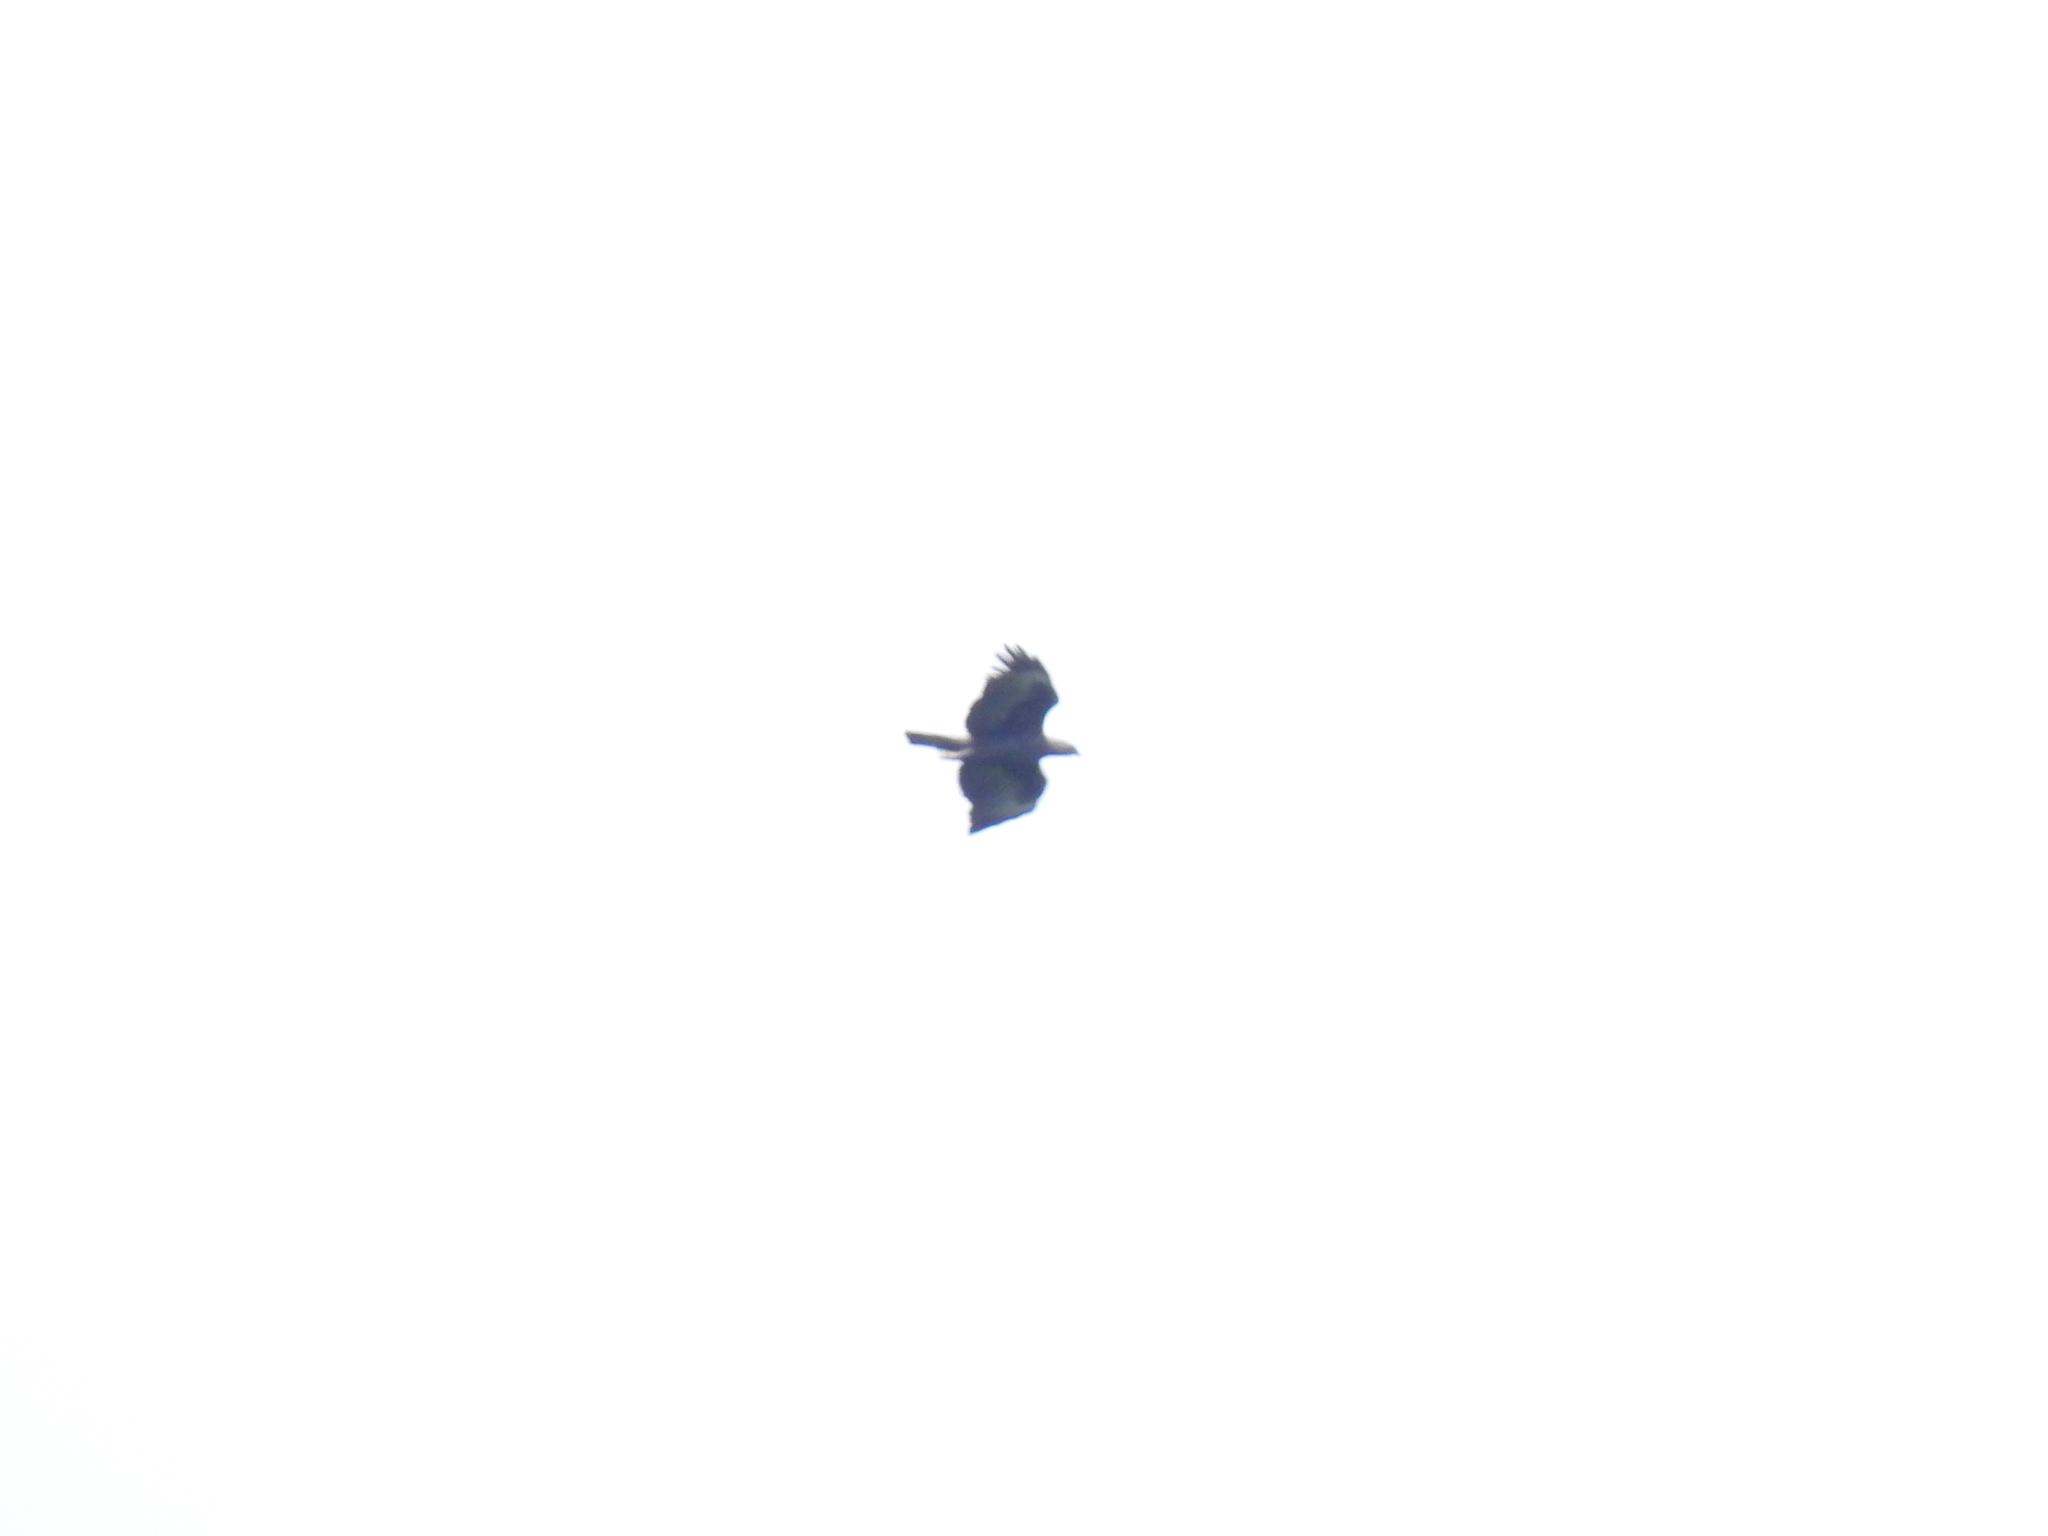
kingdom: Animalia
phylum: Chordata
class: Aves
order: Accipitriformes
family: Accipitridae
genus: Nisaetus
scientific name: Nisaetus cirrhatus
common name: Changeable hawk-eagle
